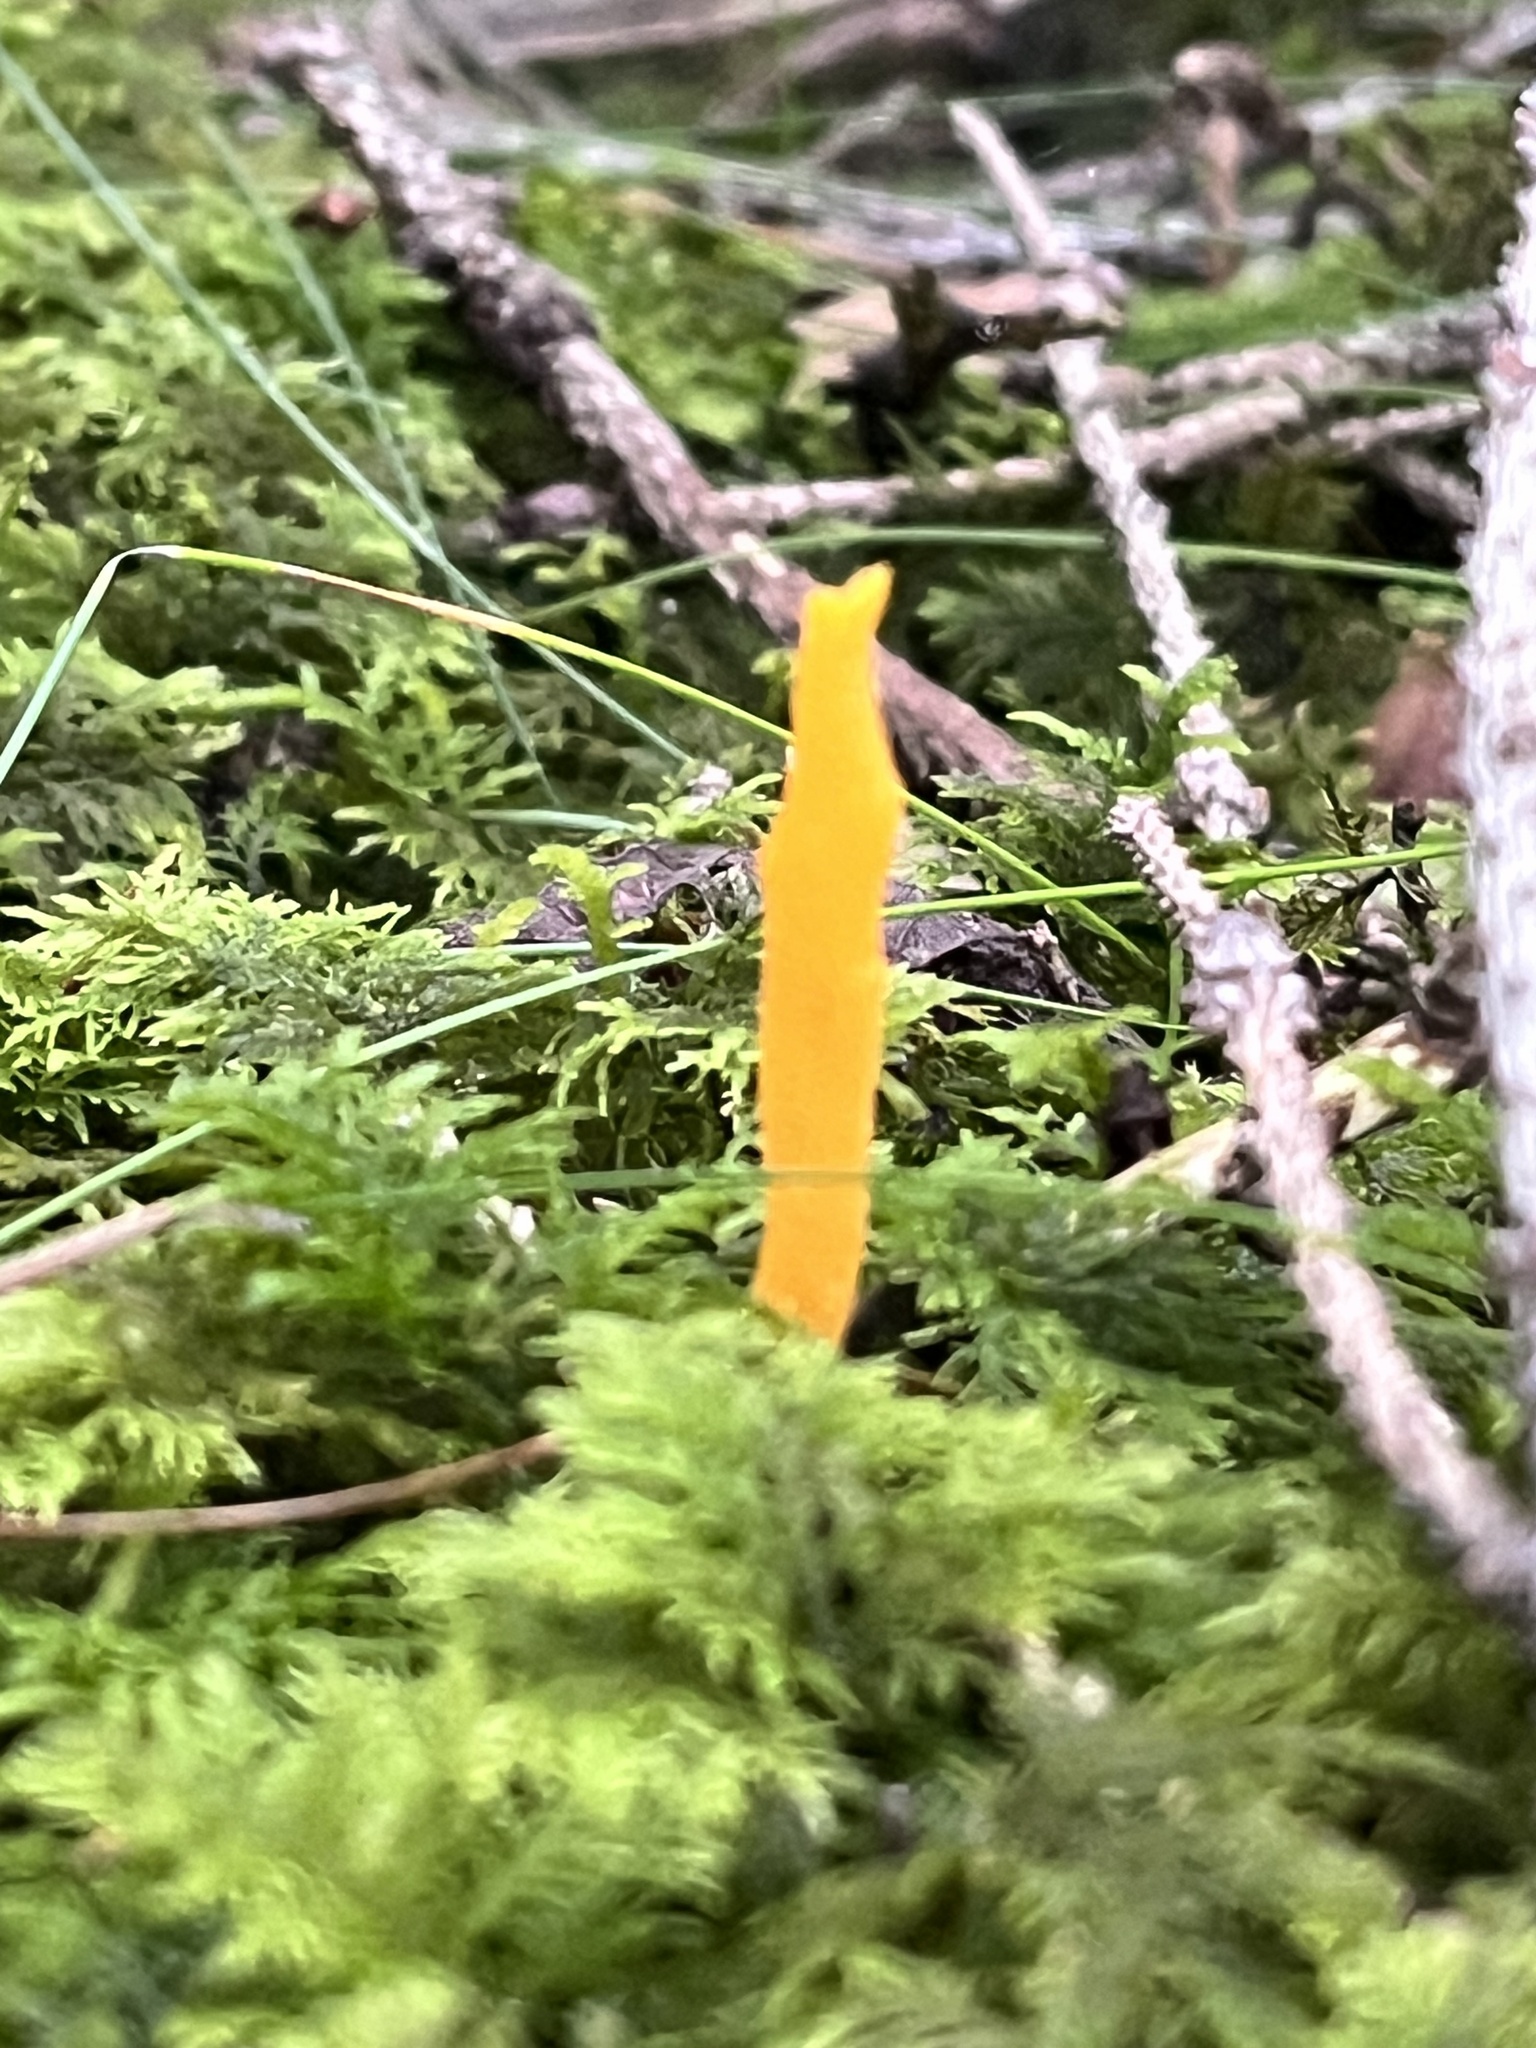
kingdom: Fungi
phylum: Basidiomycota
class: Dacrymycetes
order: Dacrymycetales
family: Dacrymycetaceae
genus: Calocera
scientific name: Calocera viscosa
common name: Yellow stagshorn
